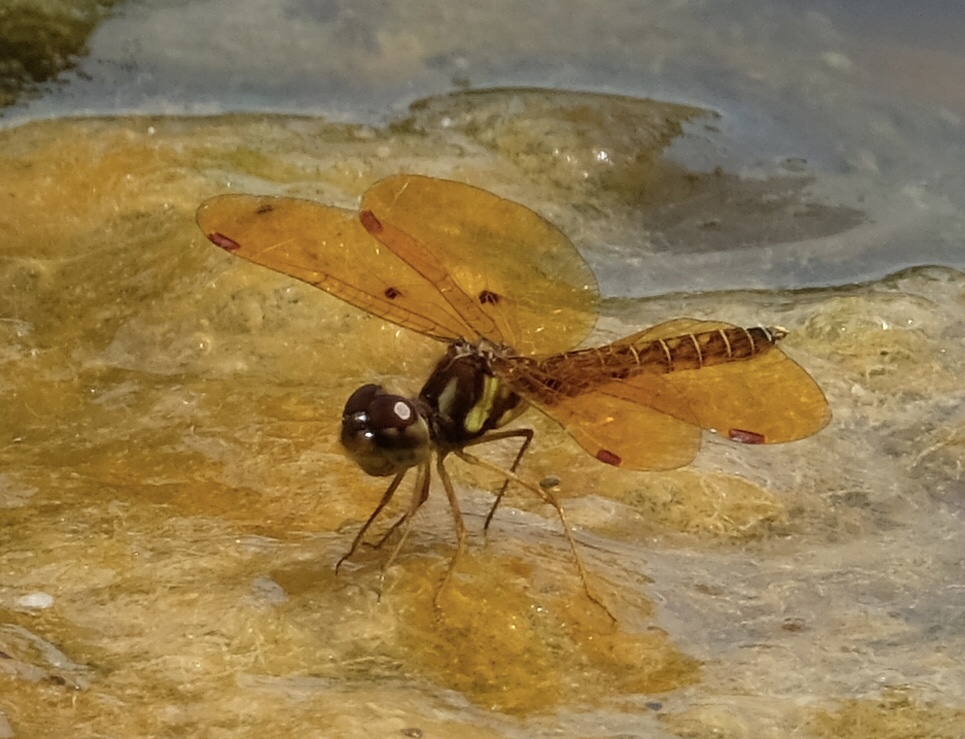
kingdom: Animalia
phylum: Arthropoda
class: Insecta
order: Odonata
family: Libellulidae
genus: Perithemis
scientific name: Perithemis tenera
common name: Eastern amberwing
